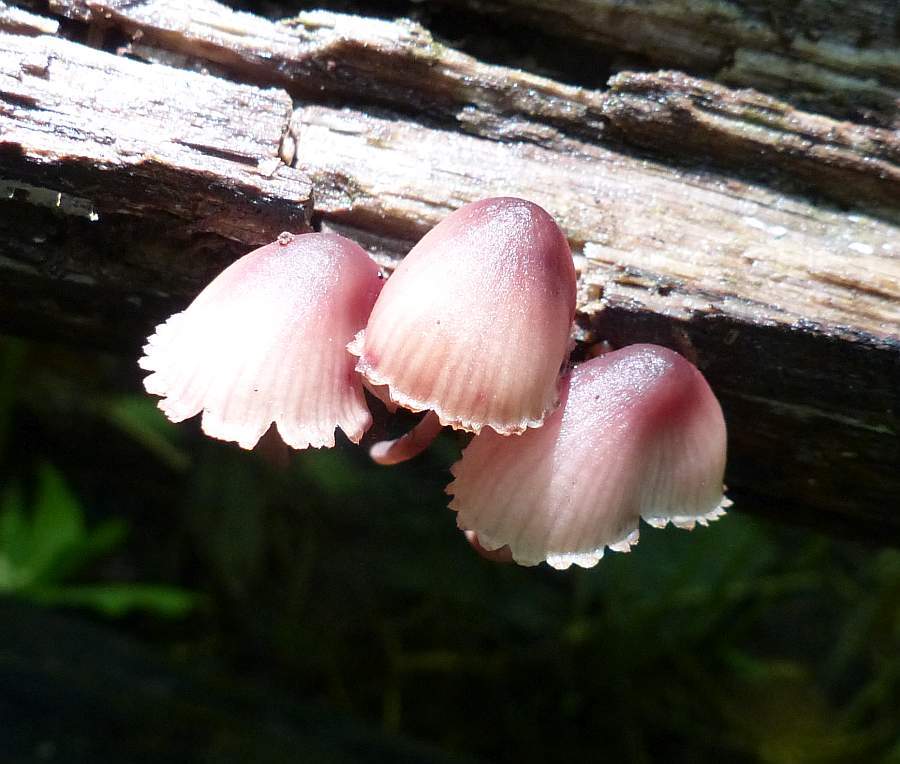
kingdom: Fungi
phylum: Basidiomycota
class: Agaricomycetes
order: Agaricales
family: Mycenaceae
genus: Mycena
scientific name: Mycena haematopus
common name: Burgundydrop bonnet
